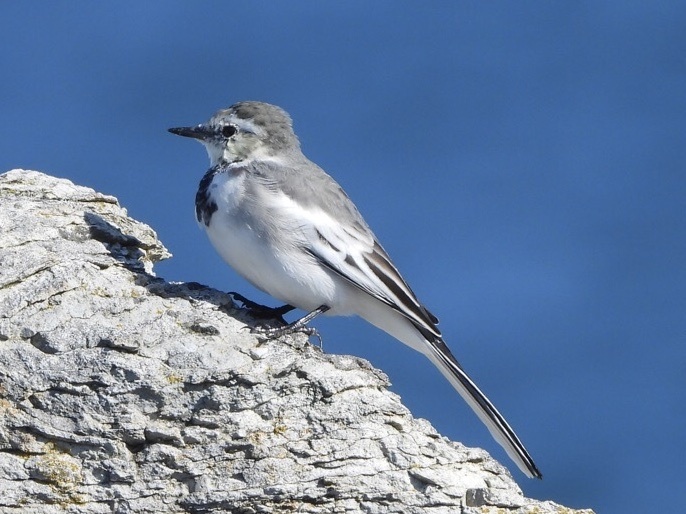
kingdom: Animalia
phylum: Chordata
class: Aves
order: Passeriformes
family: Motacillidae
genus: Motacilla
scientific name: Motacilla alba
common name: White wagtail
